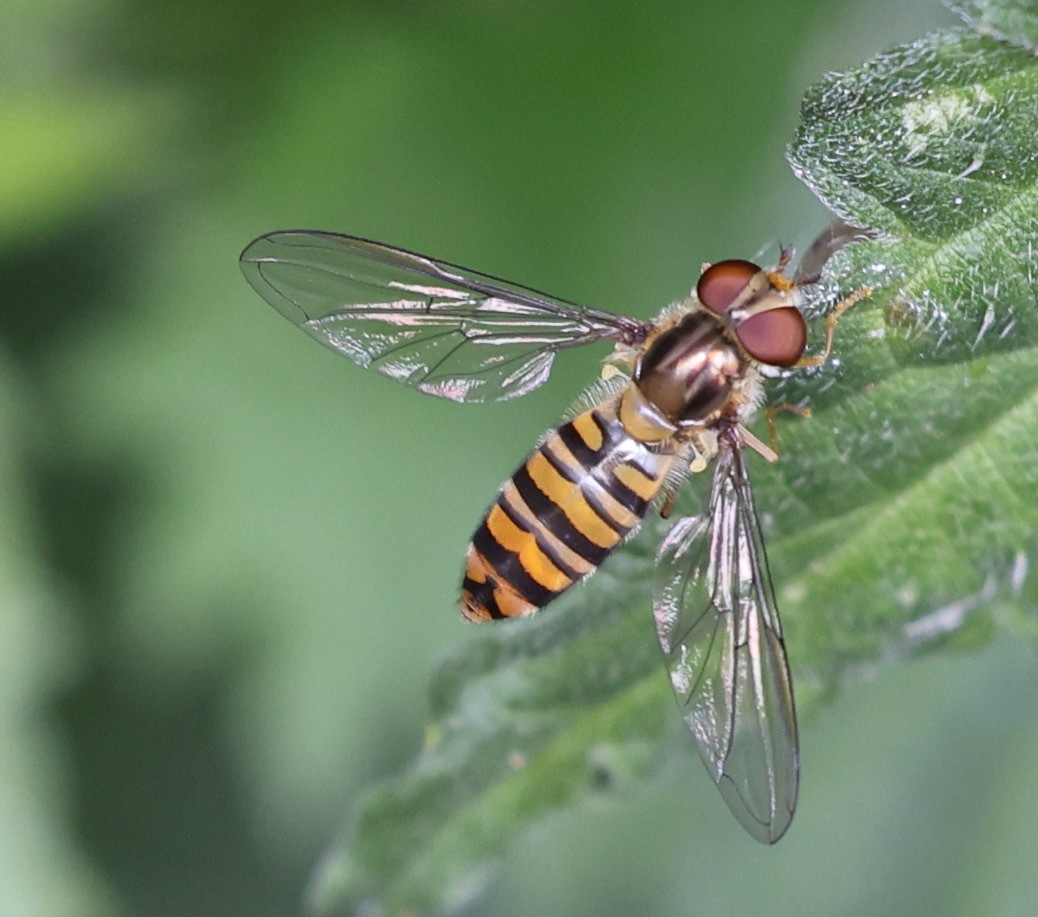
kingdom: Animalia
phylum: Arthropoda
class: Insecta
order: Diptera
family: Syrphidae
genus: Episyrphus
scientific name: Episyrphus balteatus
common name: Marmalade hoverfly
